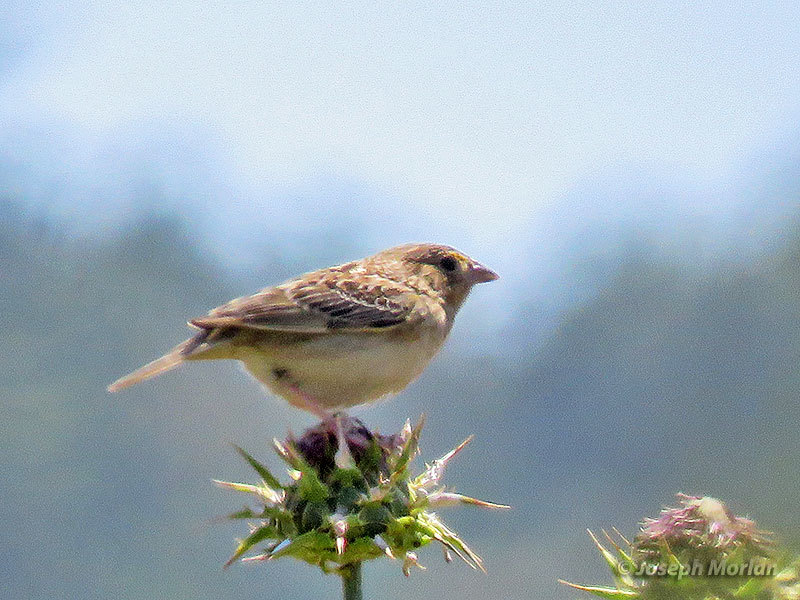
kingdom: Animalia
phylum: Chordata
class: Aves
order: Passeriformes
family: Passerellidae
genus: Ammodramus
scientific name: Ammodramus savannarum
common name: Grasshopper sparrow
